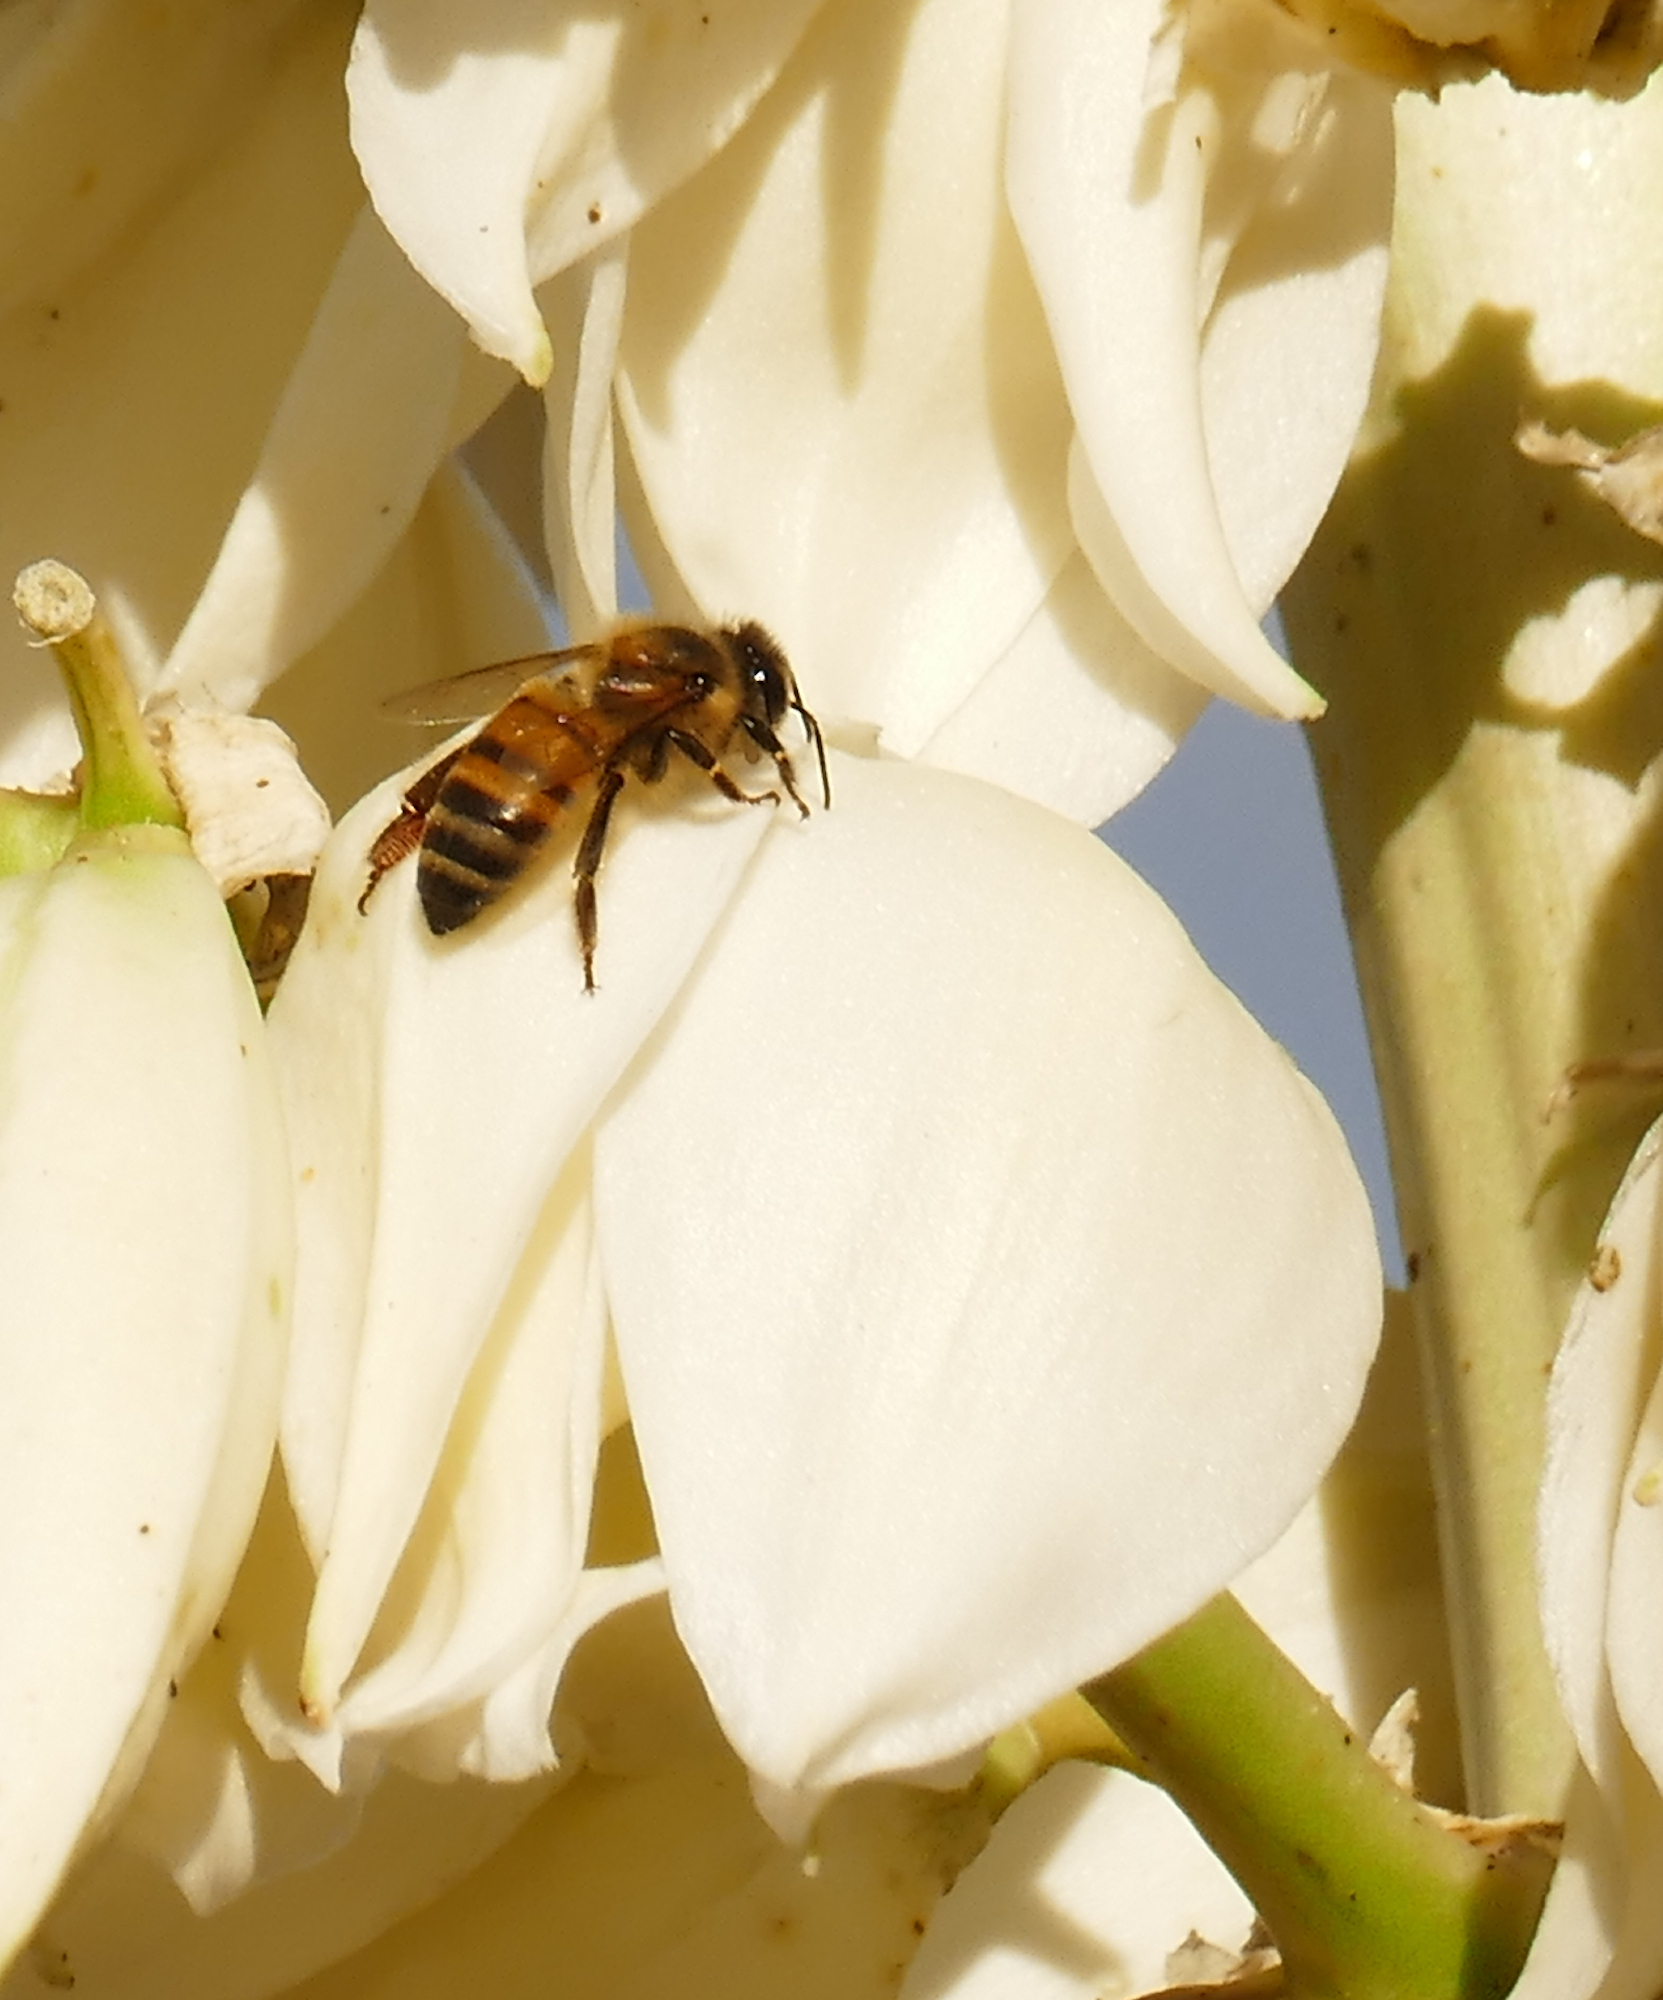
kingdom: Animalia
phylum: Arthropoda
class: Insecta
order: Hymenoptera
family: Apidae
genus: Apis
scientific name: Apis mellifera
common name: Honey bee
